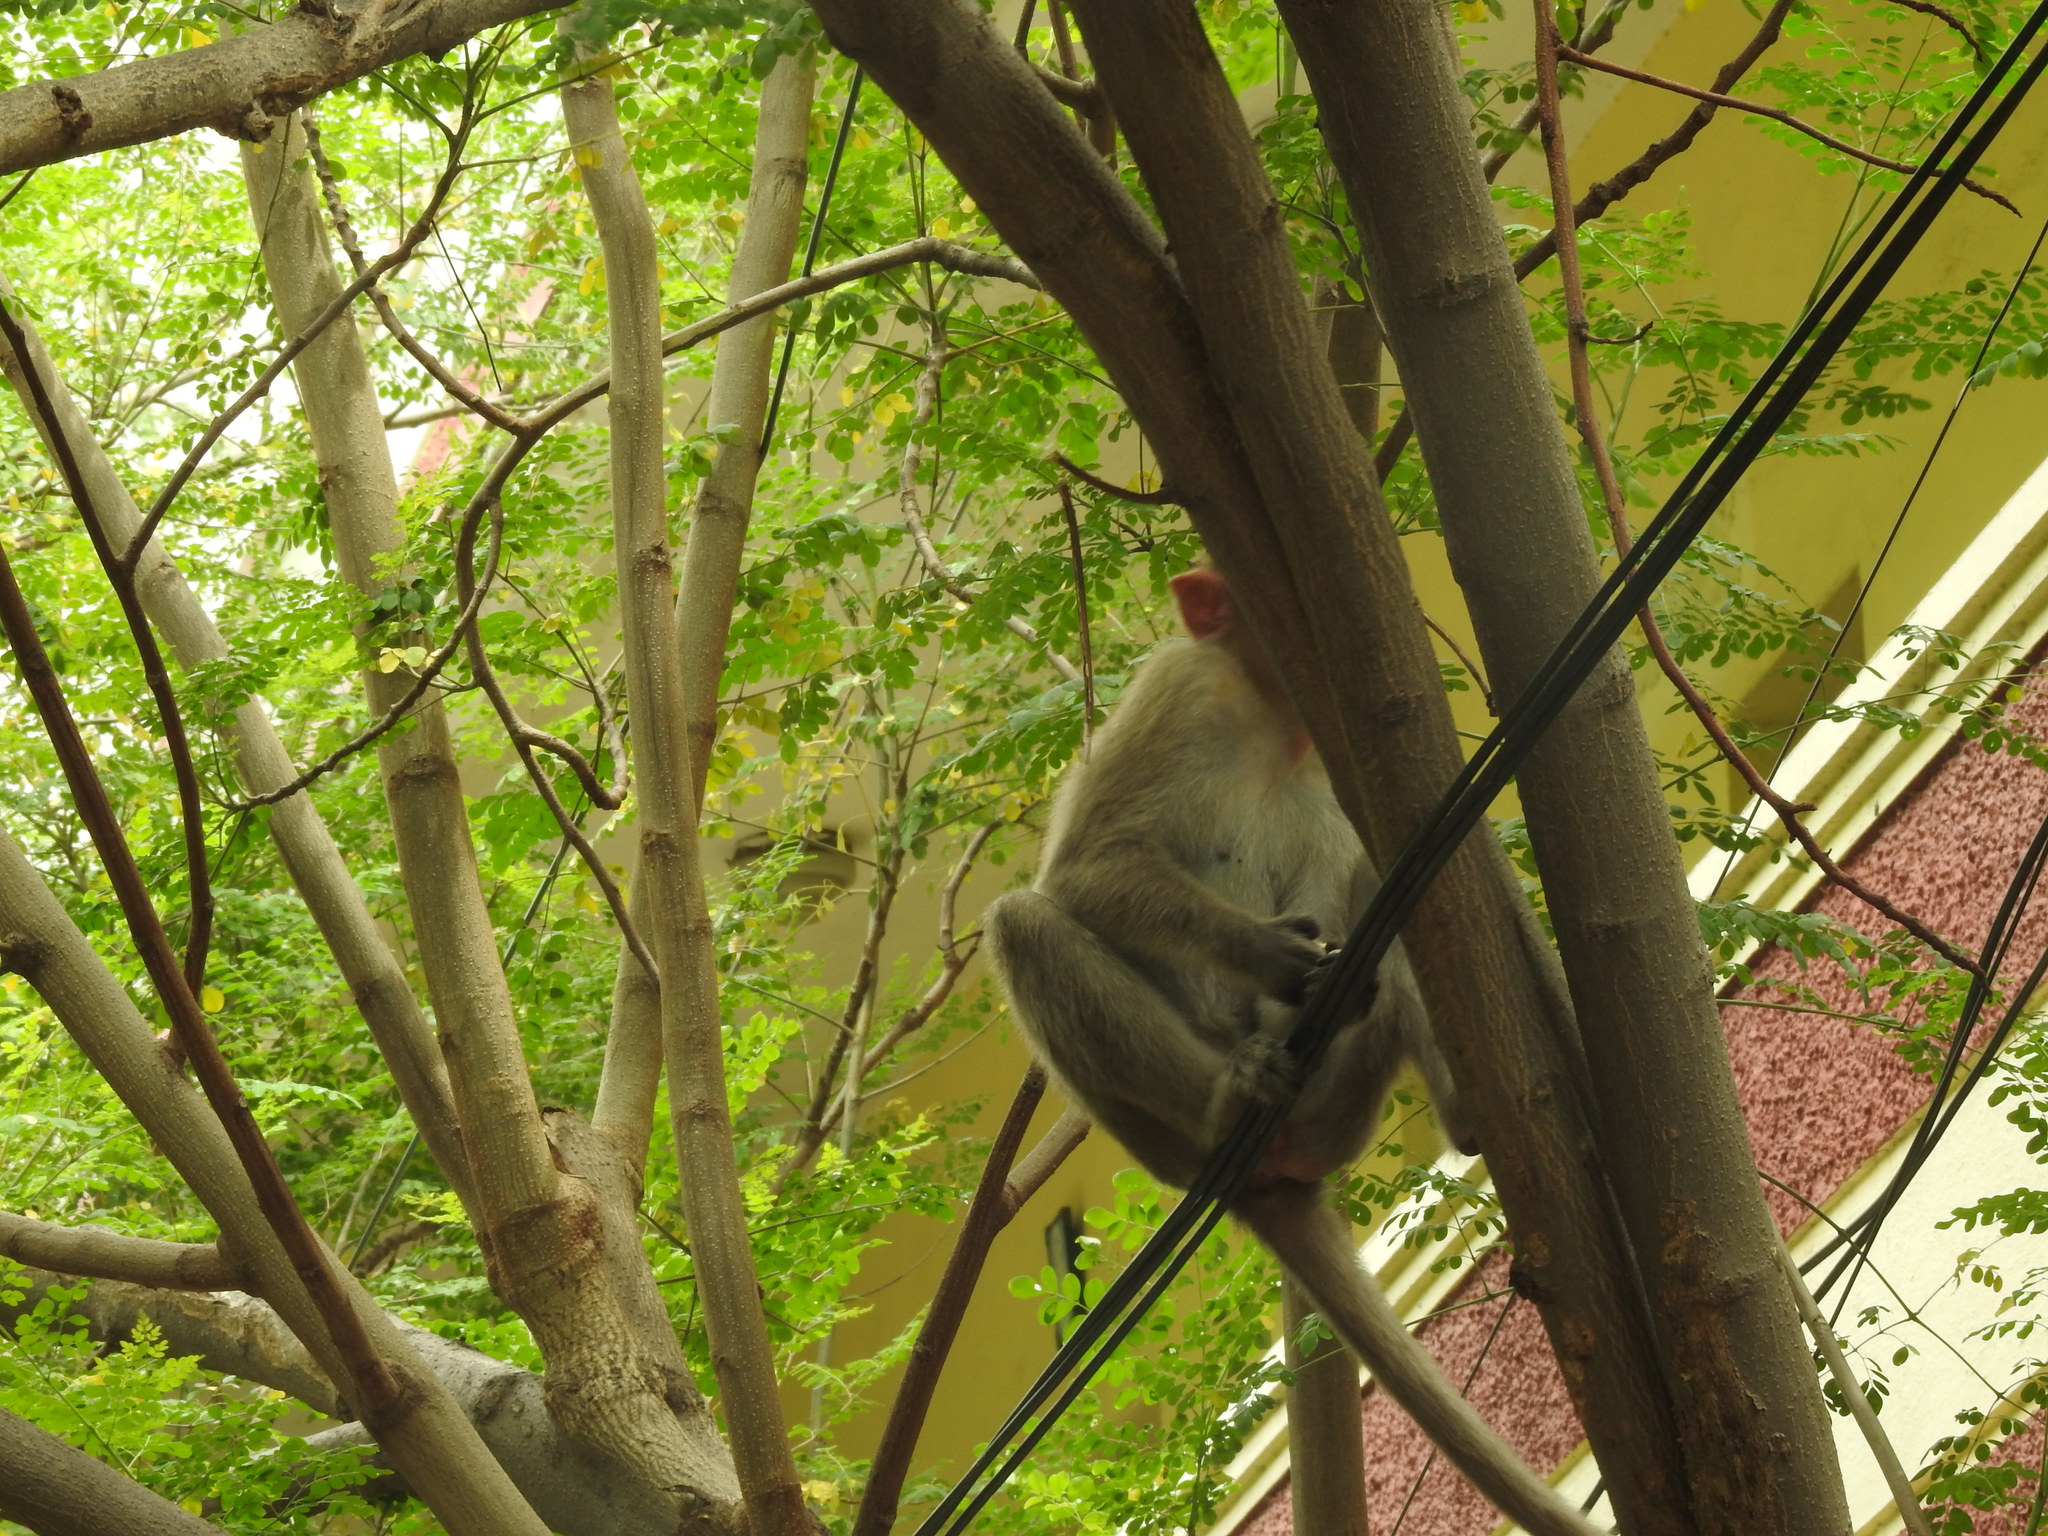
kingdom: Animalia
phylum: Chordata
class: Mammalia
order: Primates
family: Cercopithecidae
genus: Macaca
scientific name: Macaca radiata
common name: Bonnet macaque
